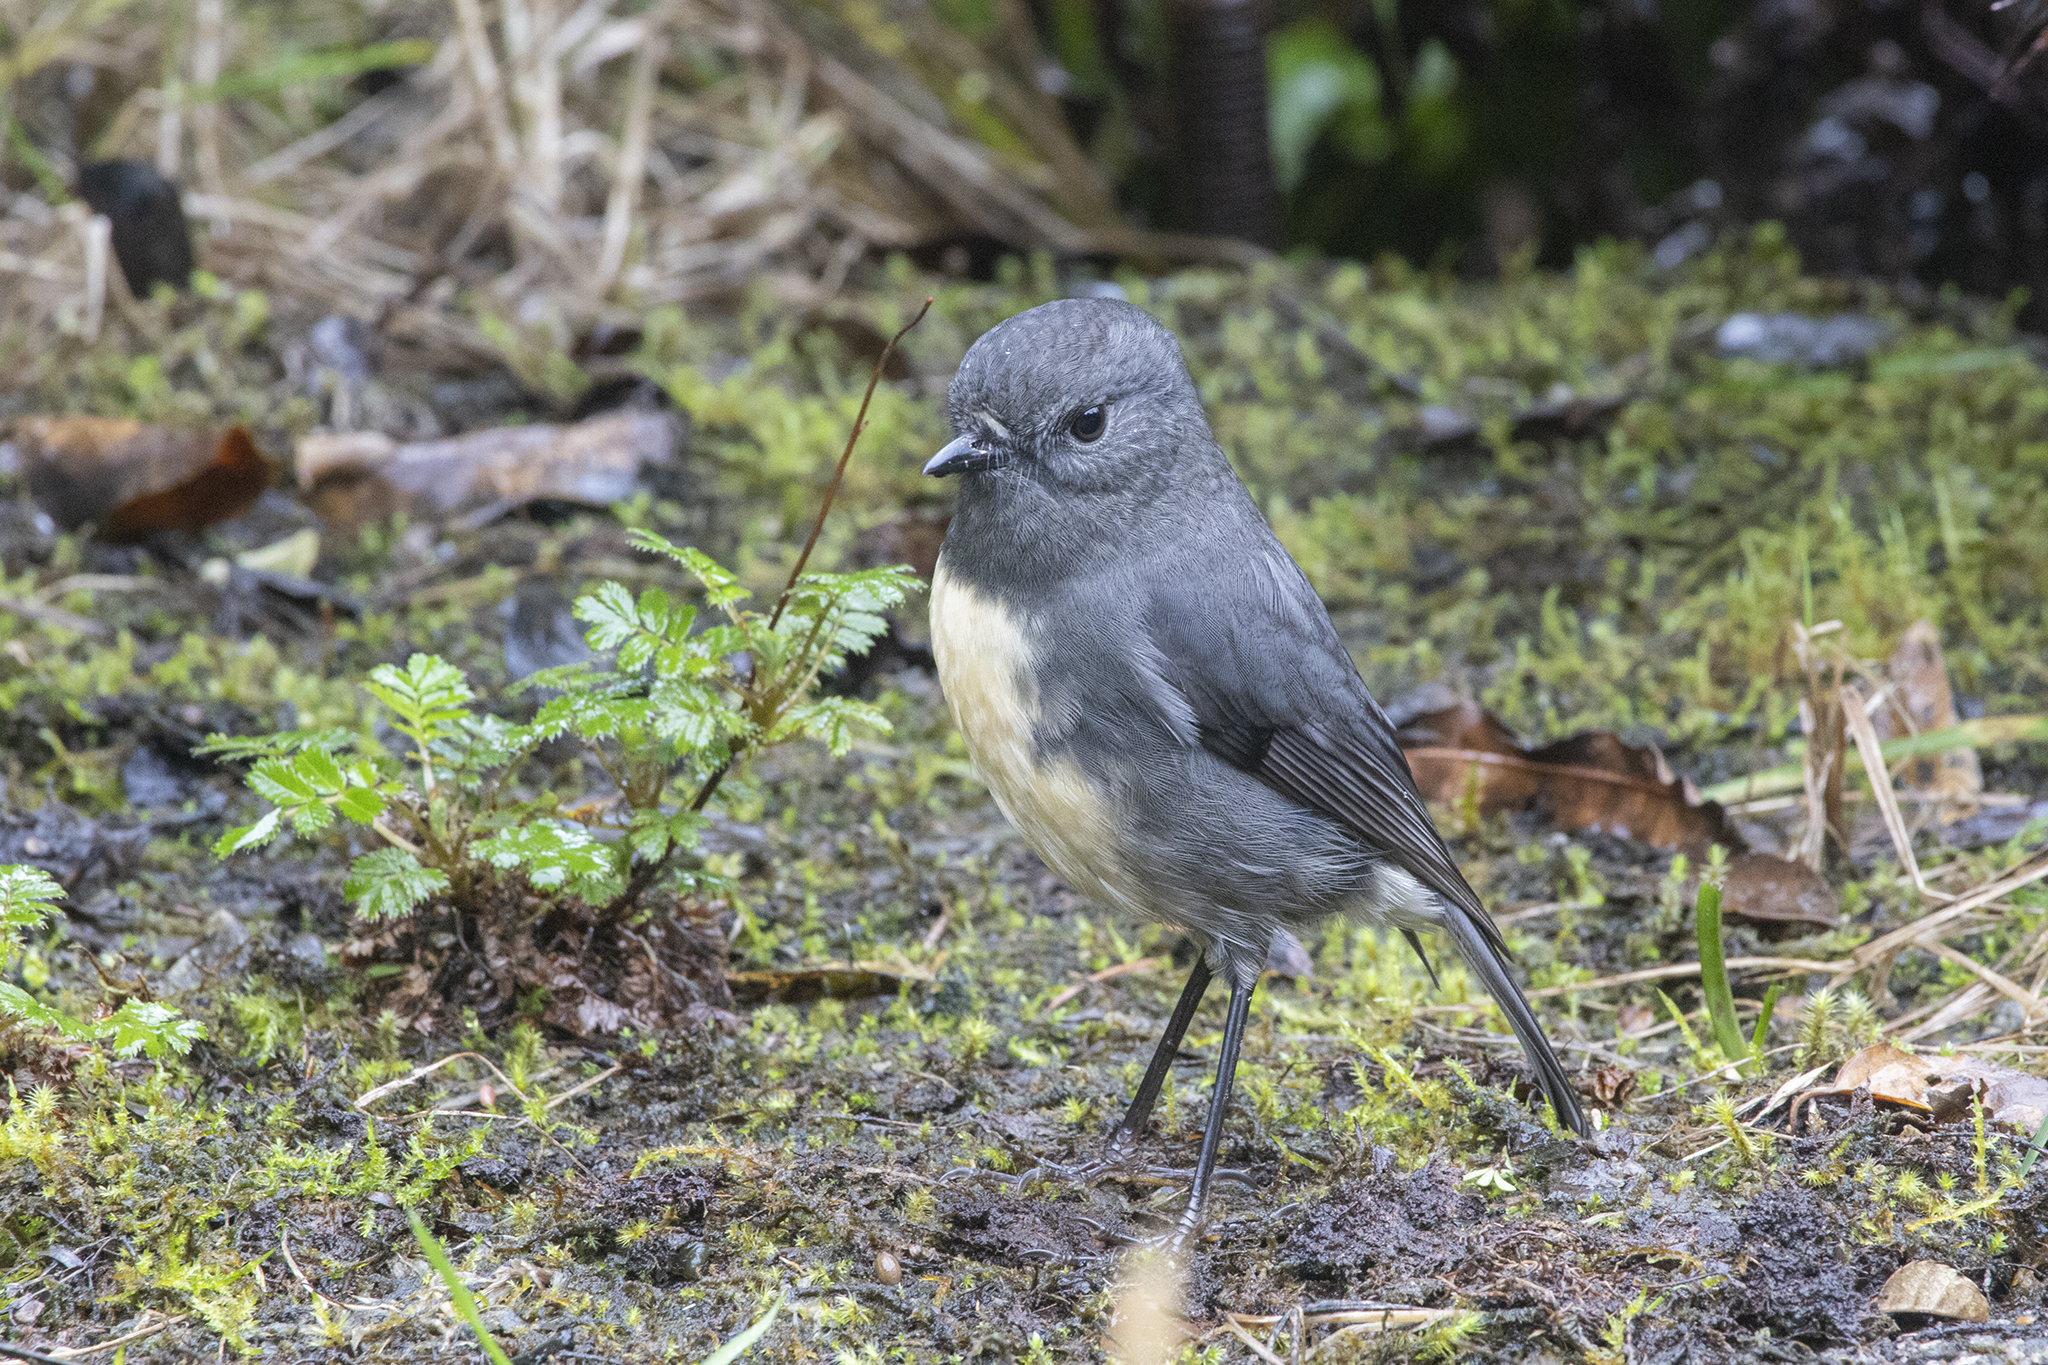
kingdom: Animalia
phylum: Chordata
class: Aves
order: Passeriformes
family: Petroicidae
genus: Petroica
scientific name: Petroica australis
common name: New zealand robin
